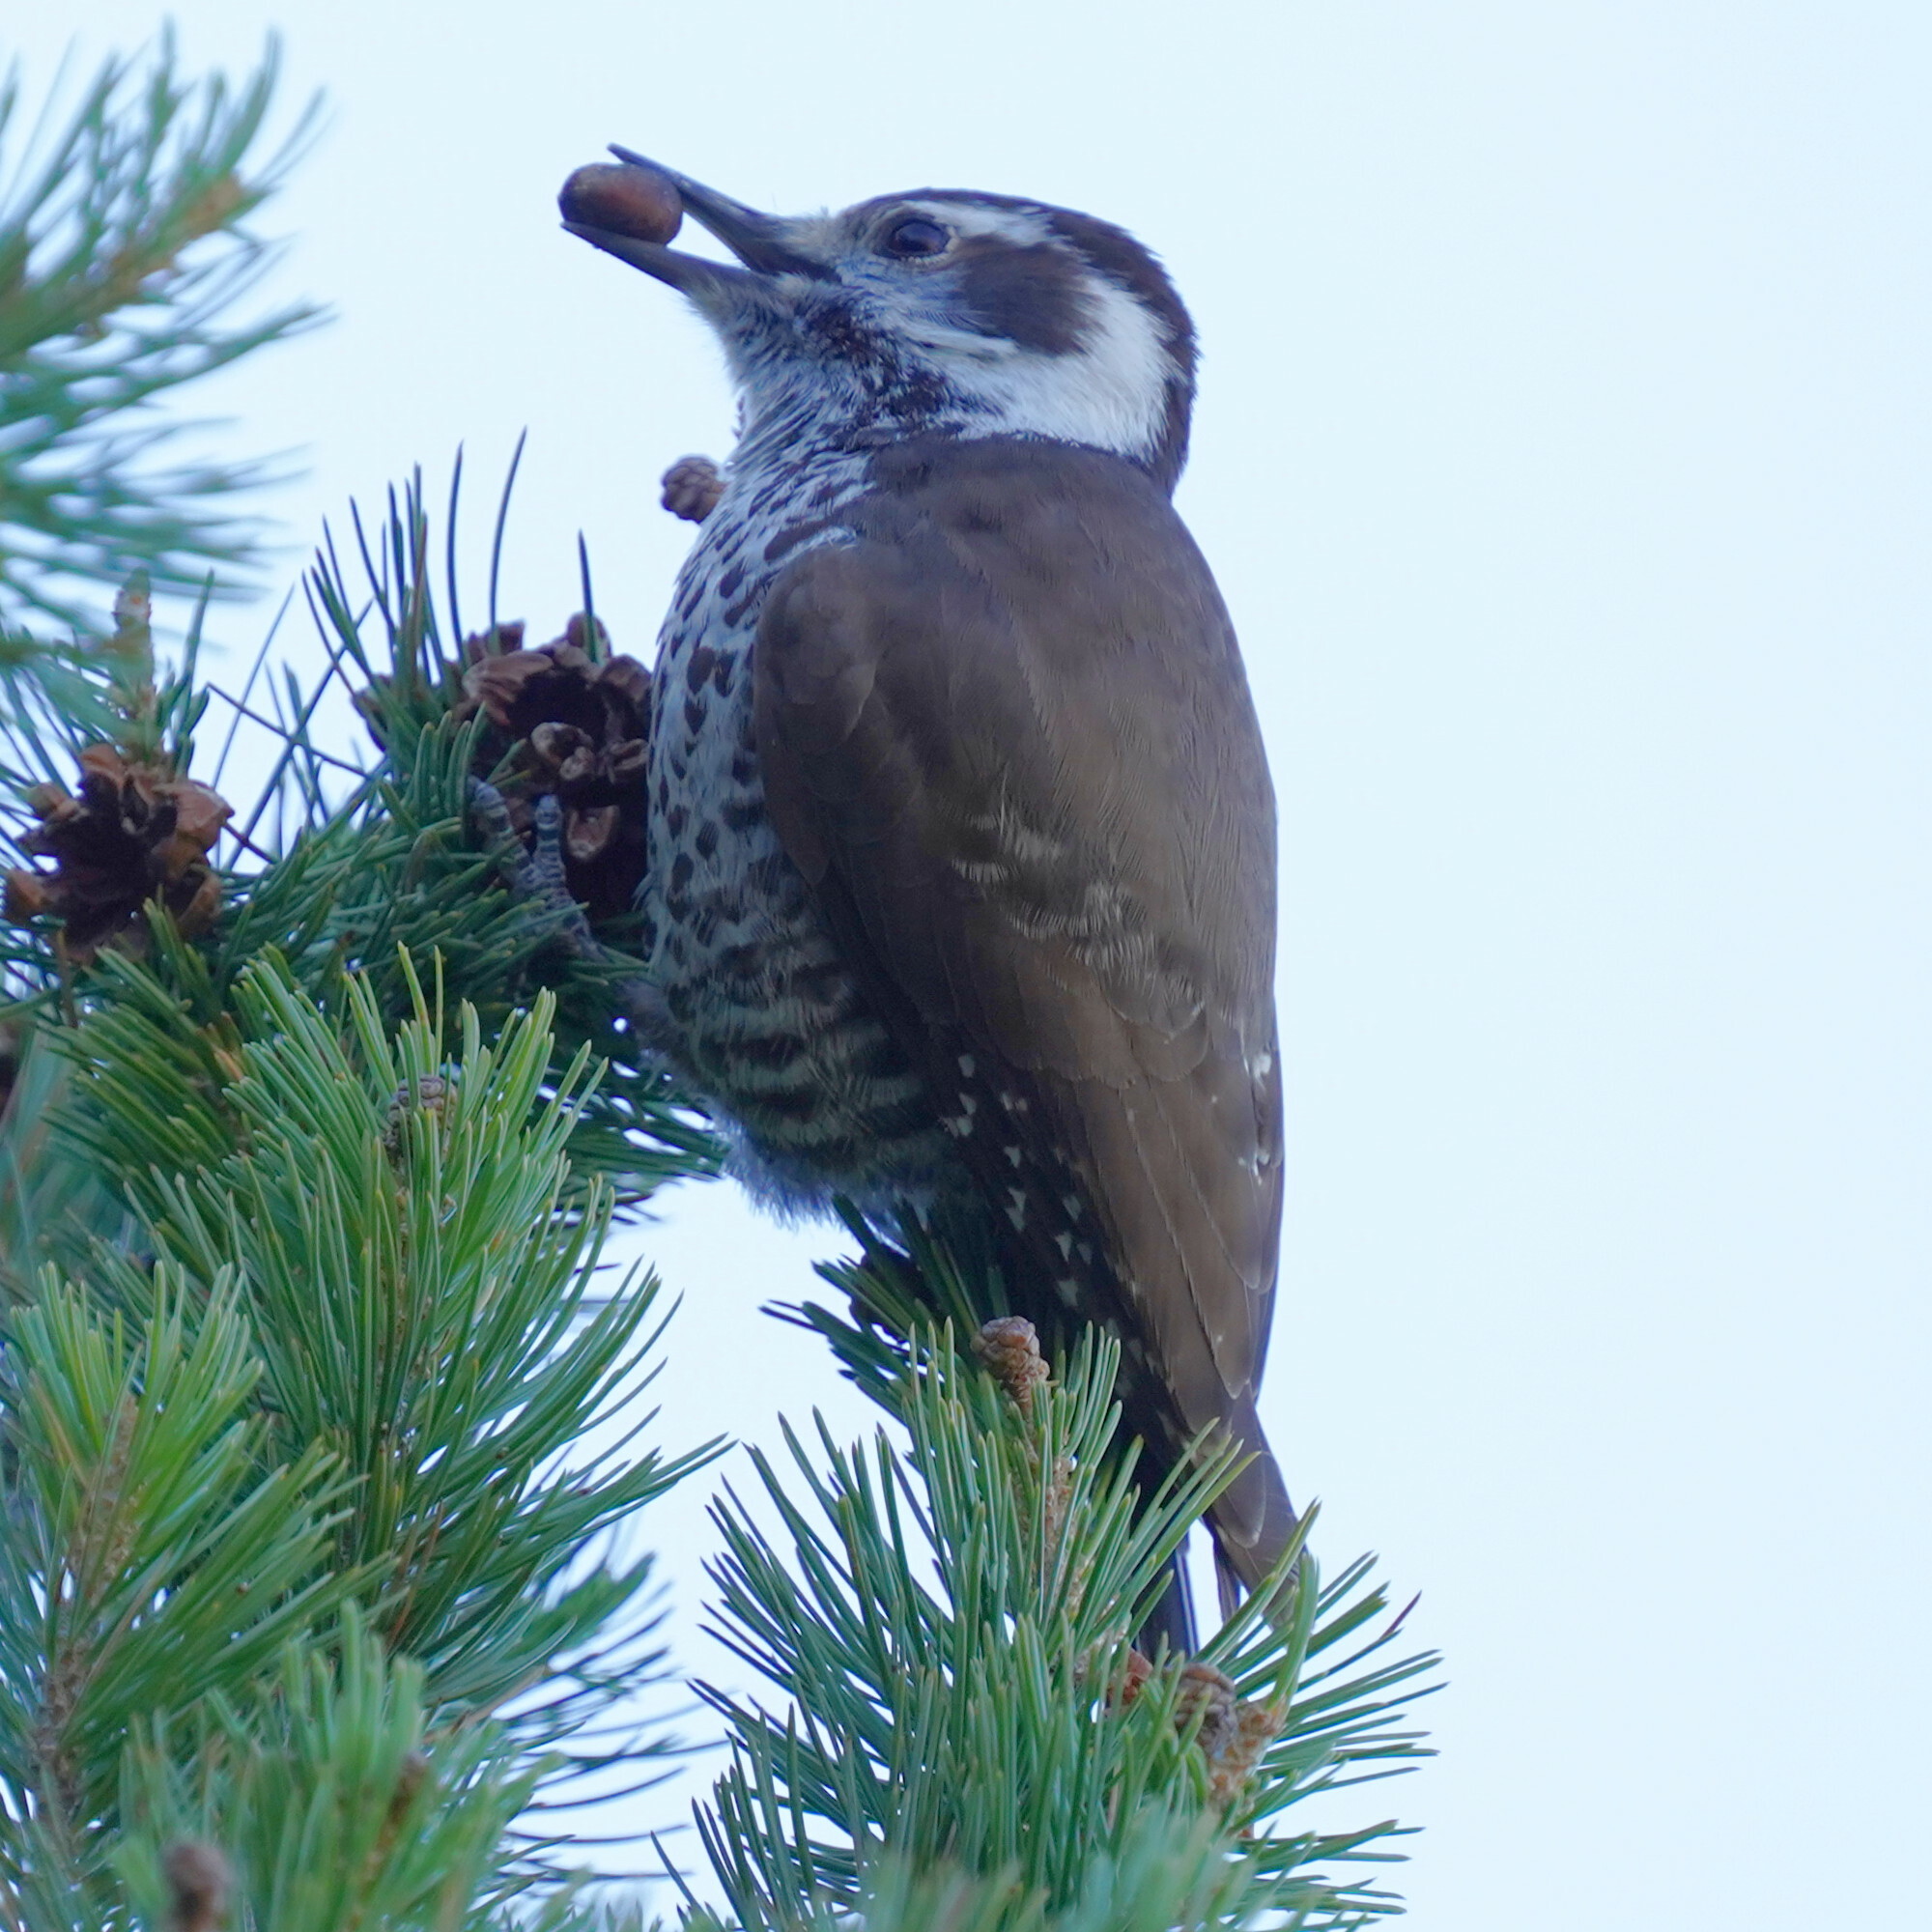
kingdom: Animalia
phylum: Chordata
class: Aves
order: Piciformes
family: Picidae
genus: Leuconotopicus
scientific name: Leuconotopicus arizonae
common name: Arizona woodpecker
